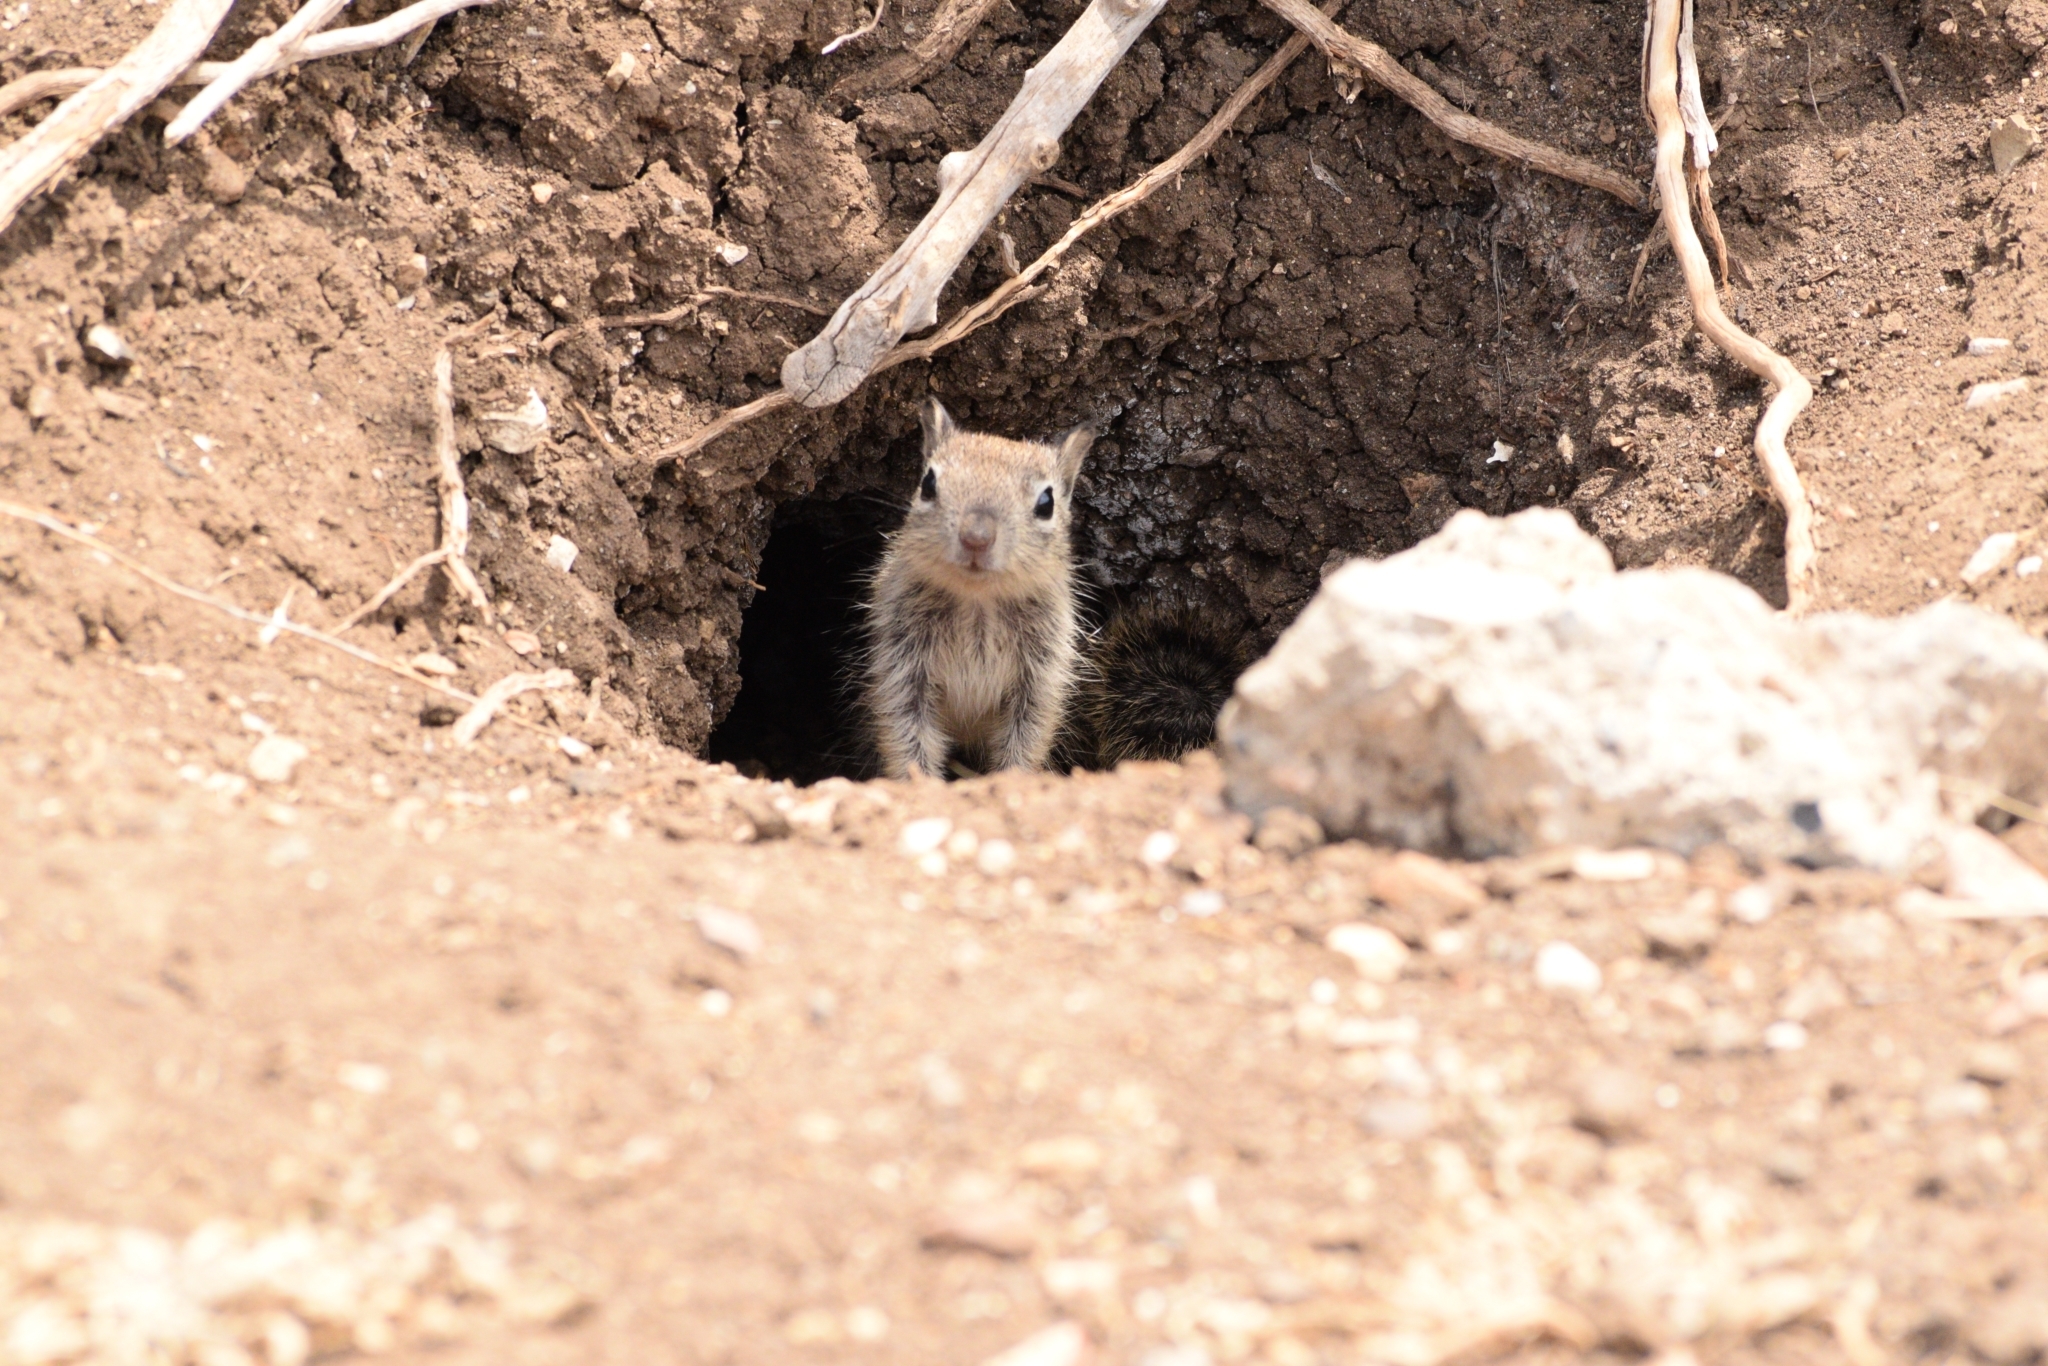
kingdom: Animalia
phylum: Chordata
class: Mammalia
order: Rodentia
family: Sciuridae
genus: Otospermophilus
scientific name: Otospermophilus beecheyi
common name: California ground squirrel
